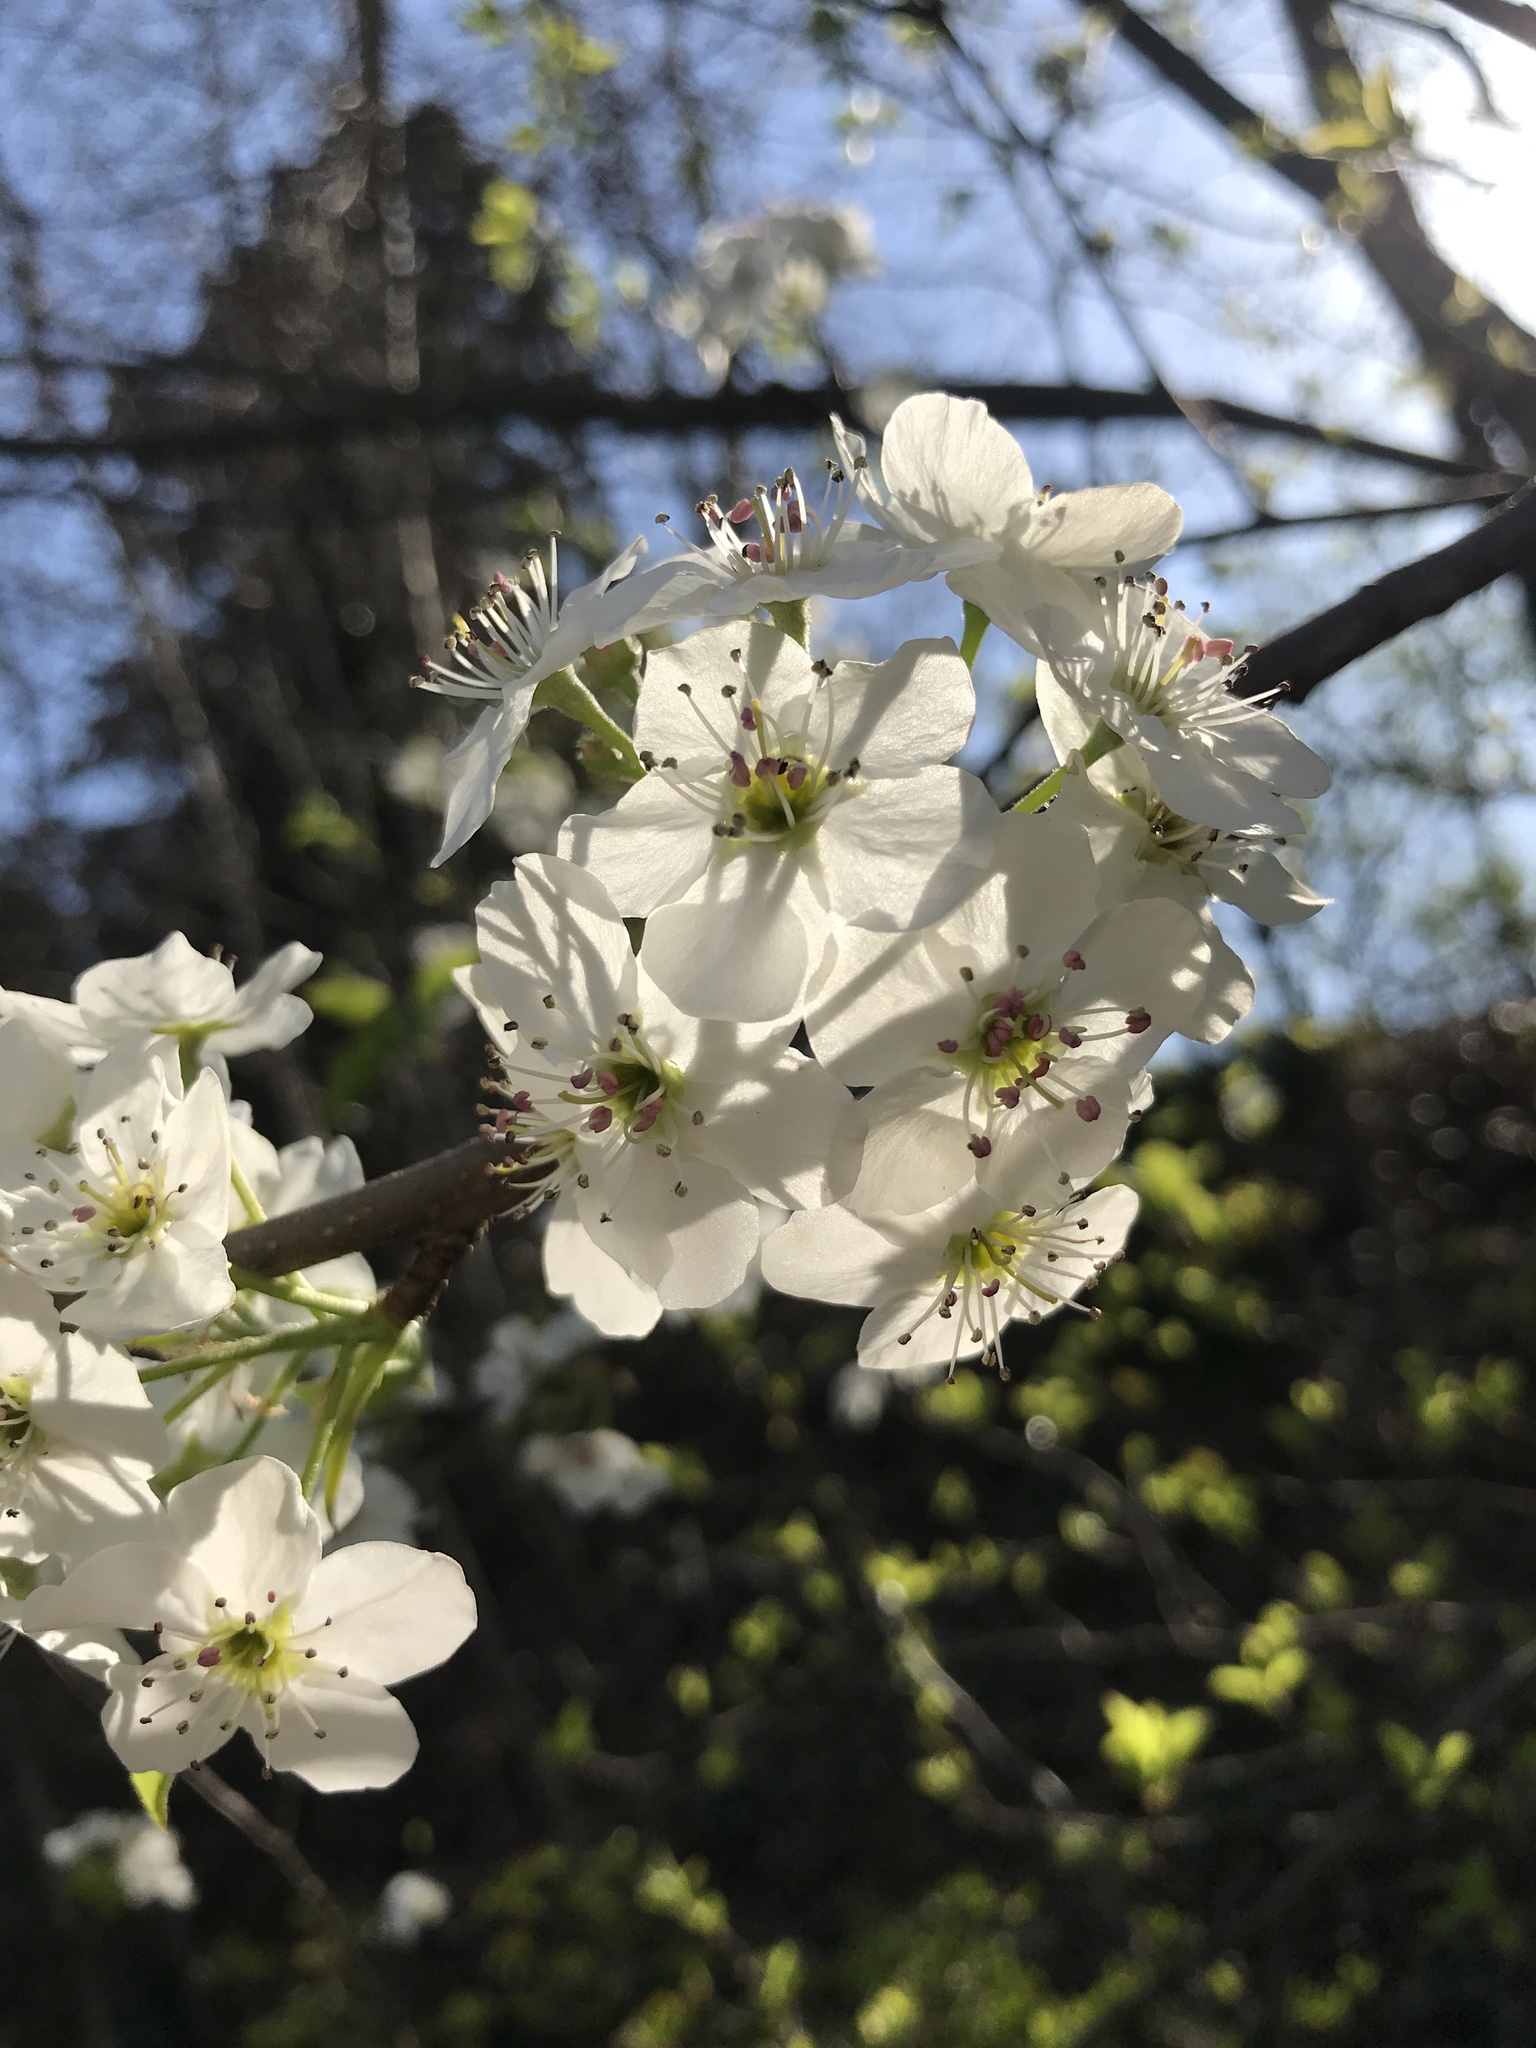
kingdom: Plantae
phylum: Tracheophyta
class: Magnoliopsida
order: Rosales
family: Rosaceae
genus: Pyrus
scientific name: Pyrus calleryana
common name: Callery pear
